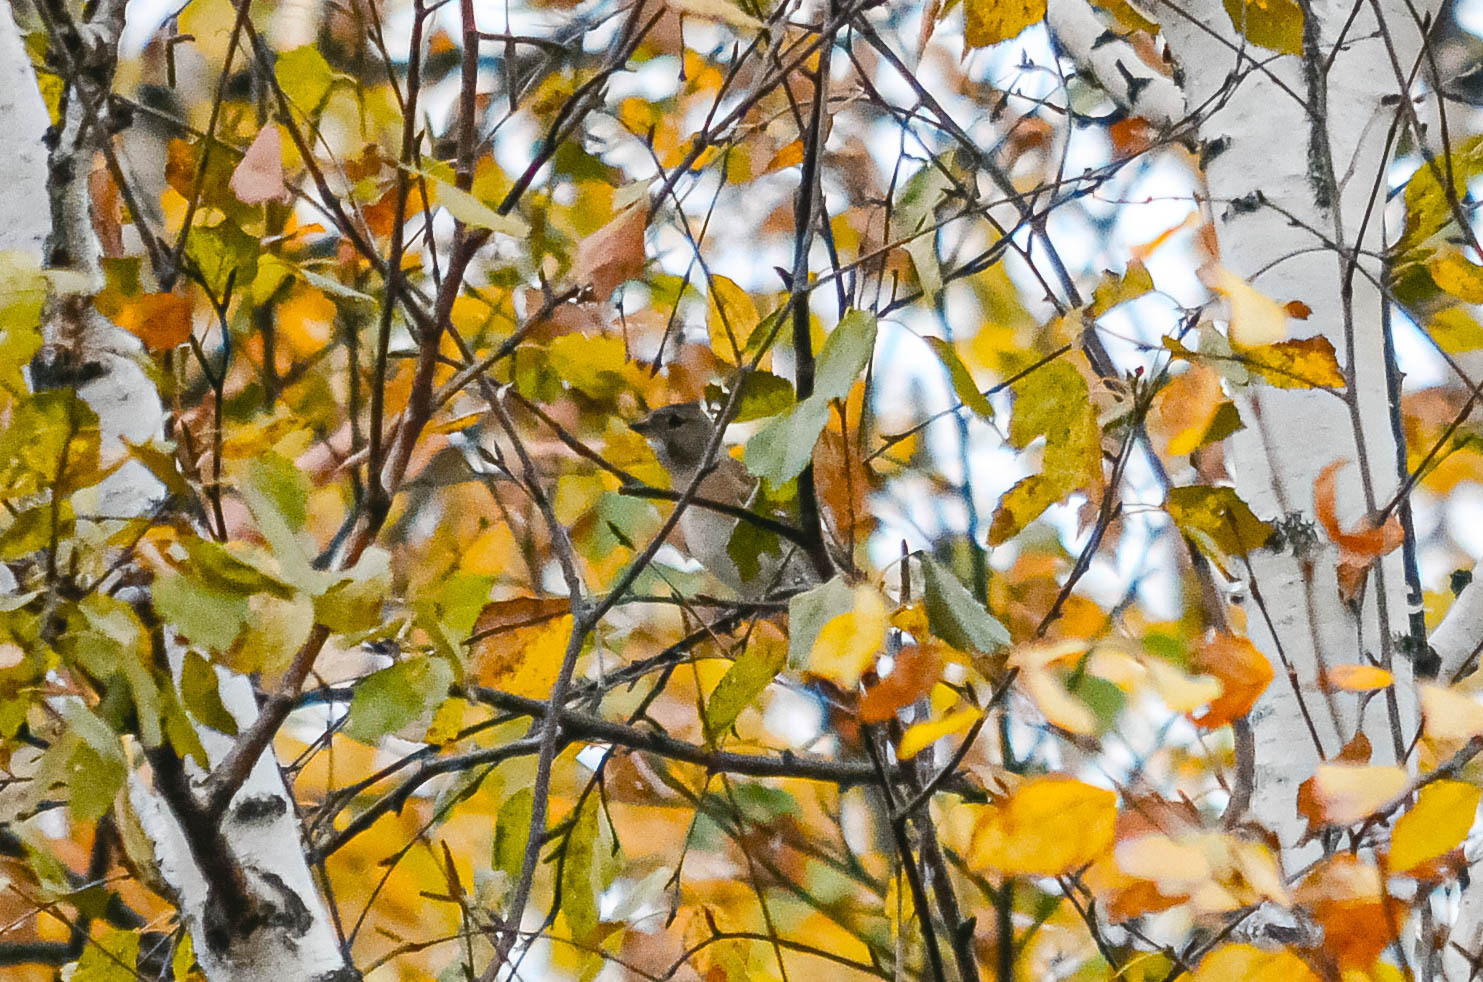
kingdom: Animalia
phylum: Chordata
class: Aves
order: Passeriformes
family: Fringillidae
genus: Fringilla
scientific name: Fringilla montifringilla
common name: Brambling
